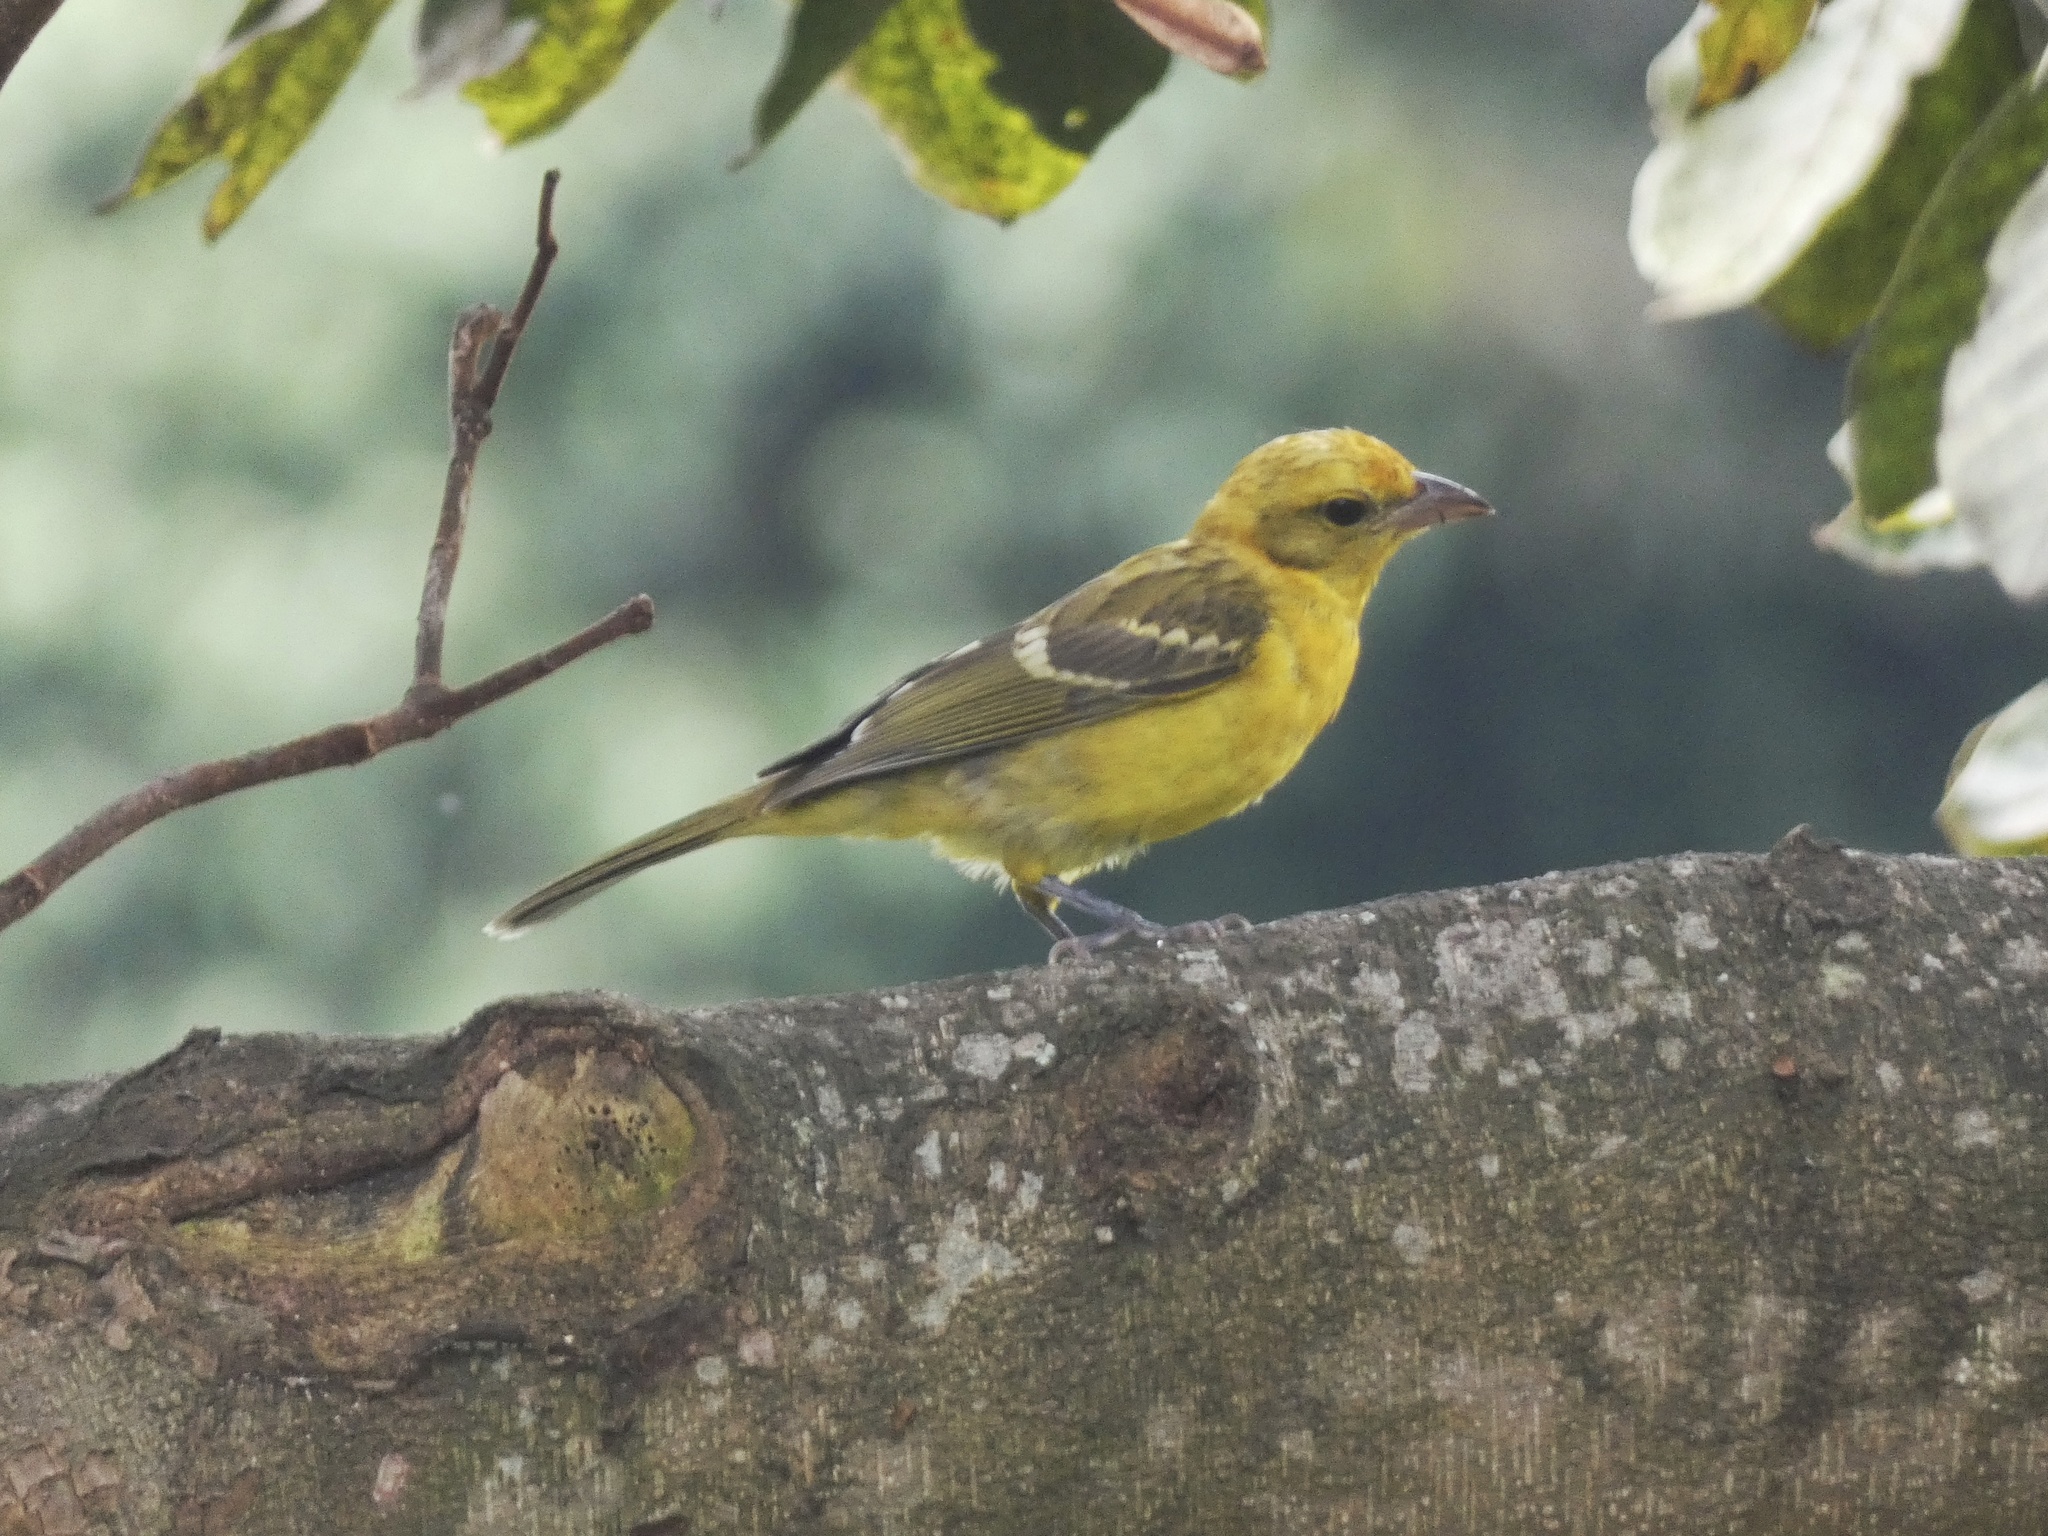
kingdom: Animalia
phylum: Chordata
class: Aves
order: Passeriformes
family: Cardinalidae
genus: Piranga
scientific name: Piranga bidentata
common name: Flame-colored tanager
